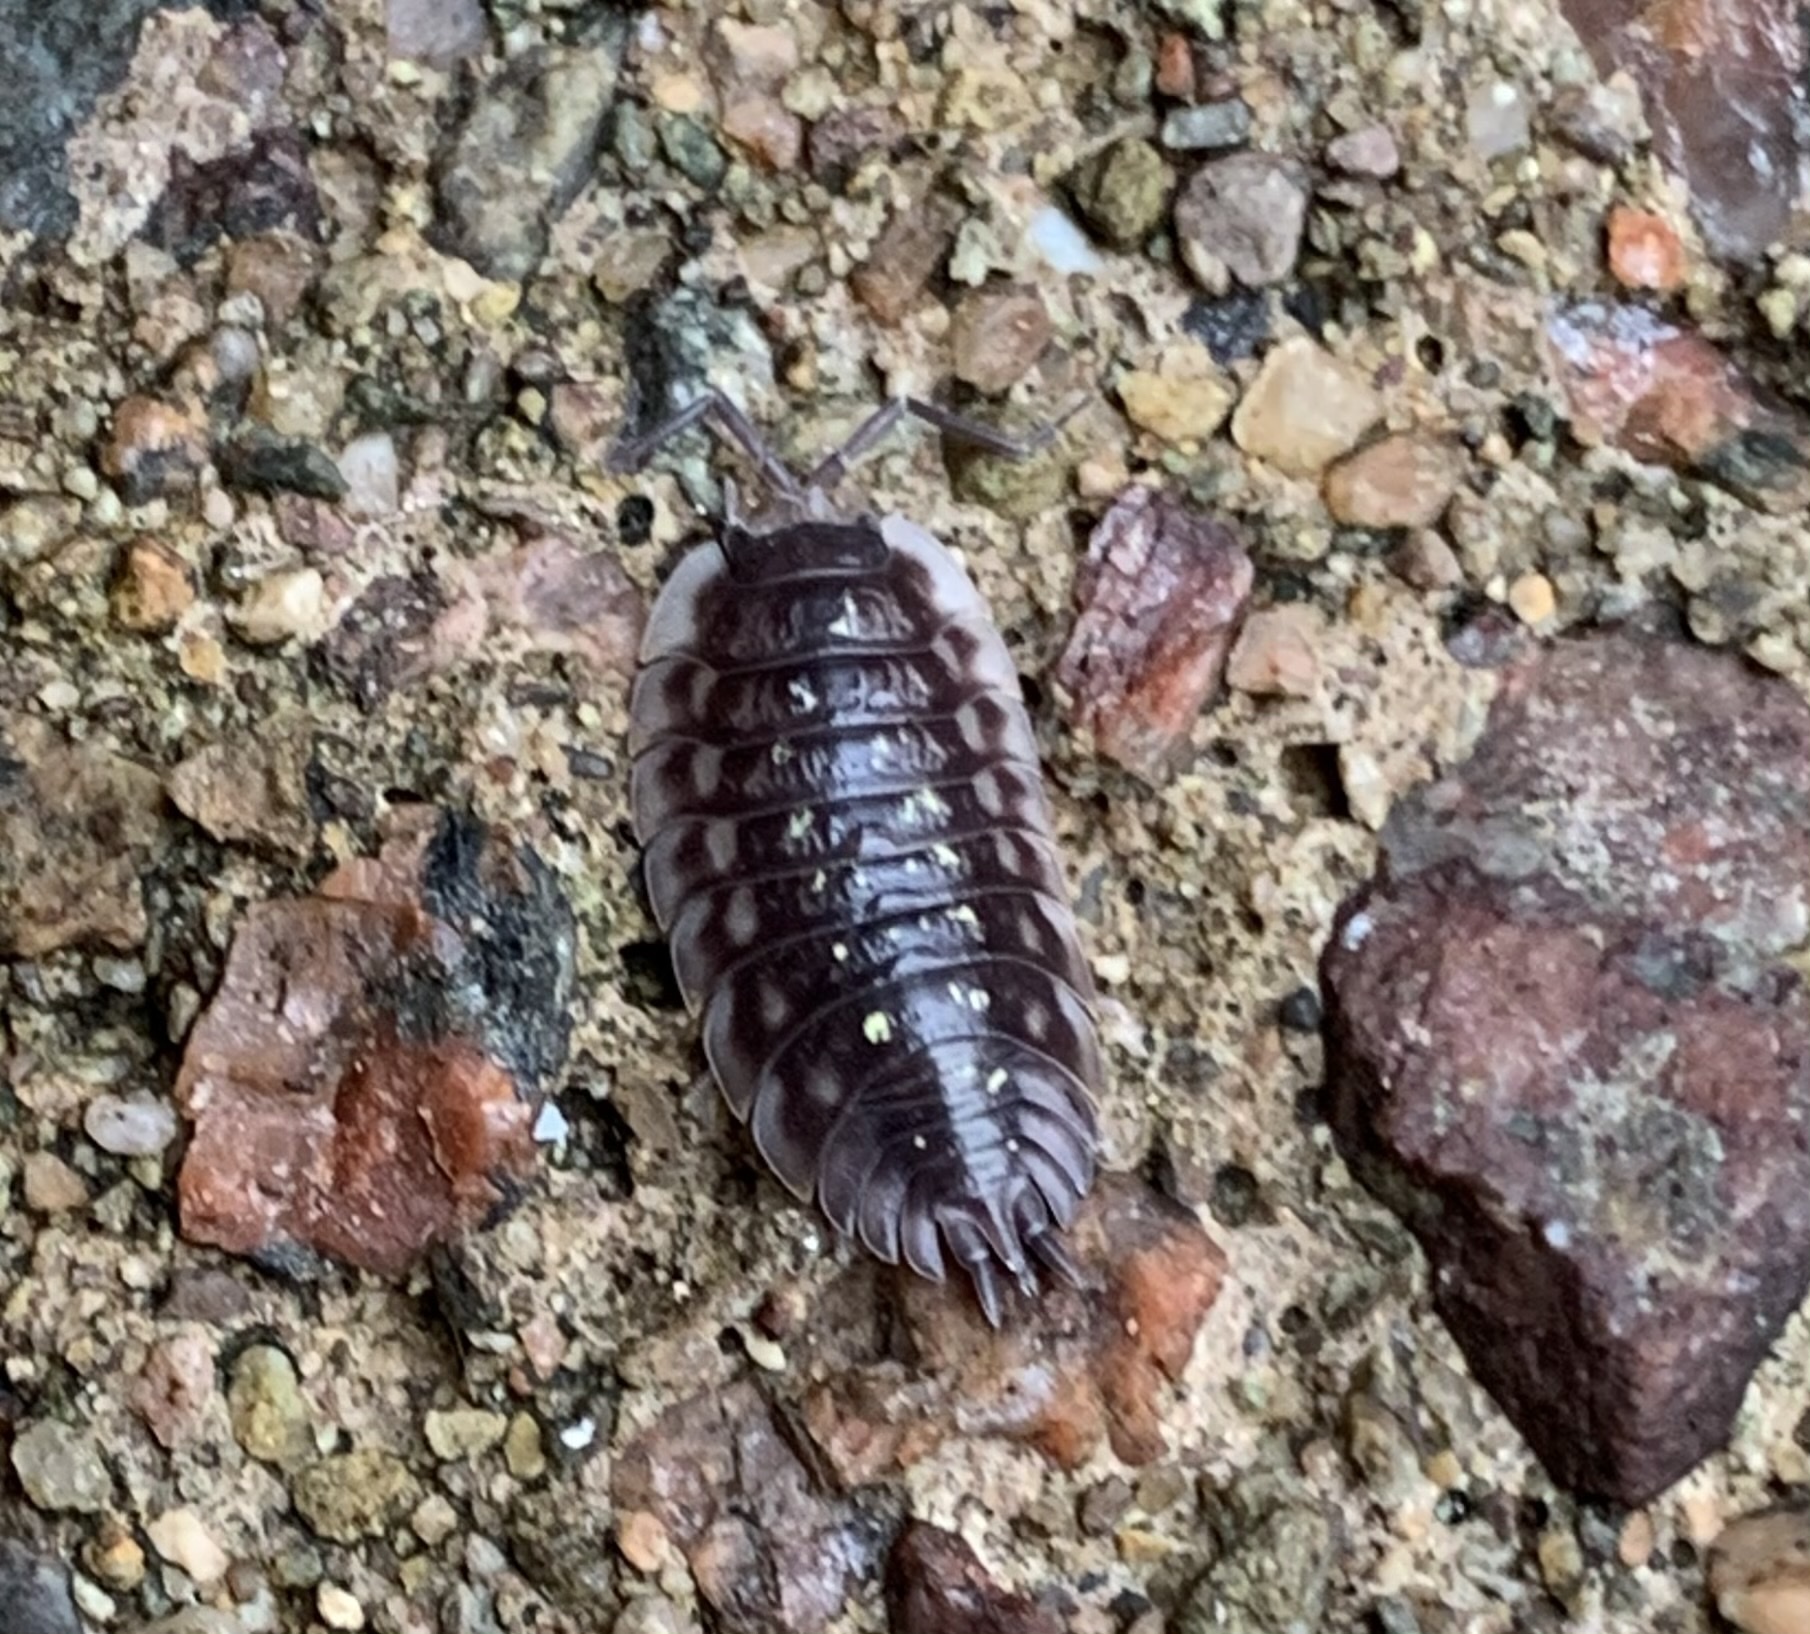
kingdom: Animalia
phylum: Arthropoda
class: Malacostraca
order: Isopoda
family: Oniscidae
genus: Oniscus
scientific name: Oniscus asellus
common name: Common shiny woodlouse
